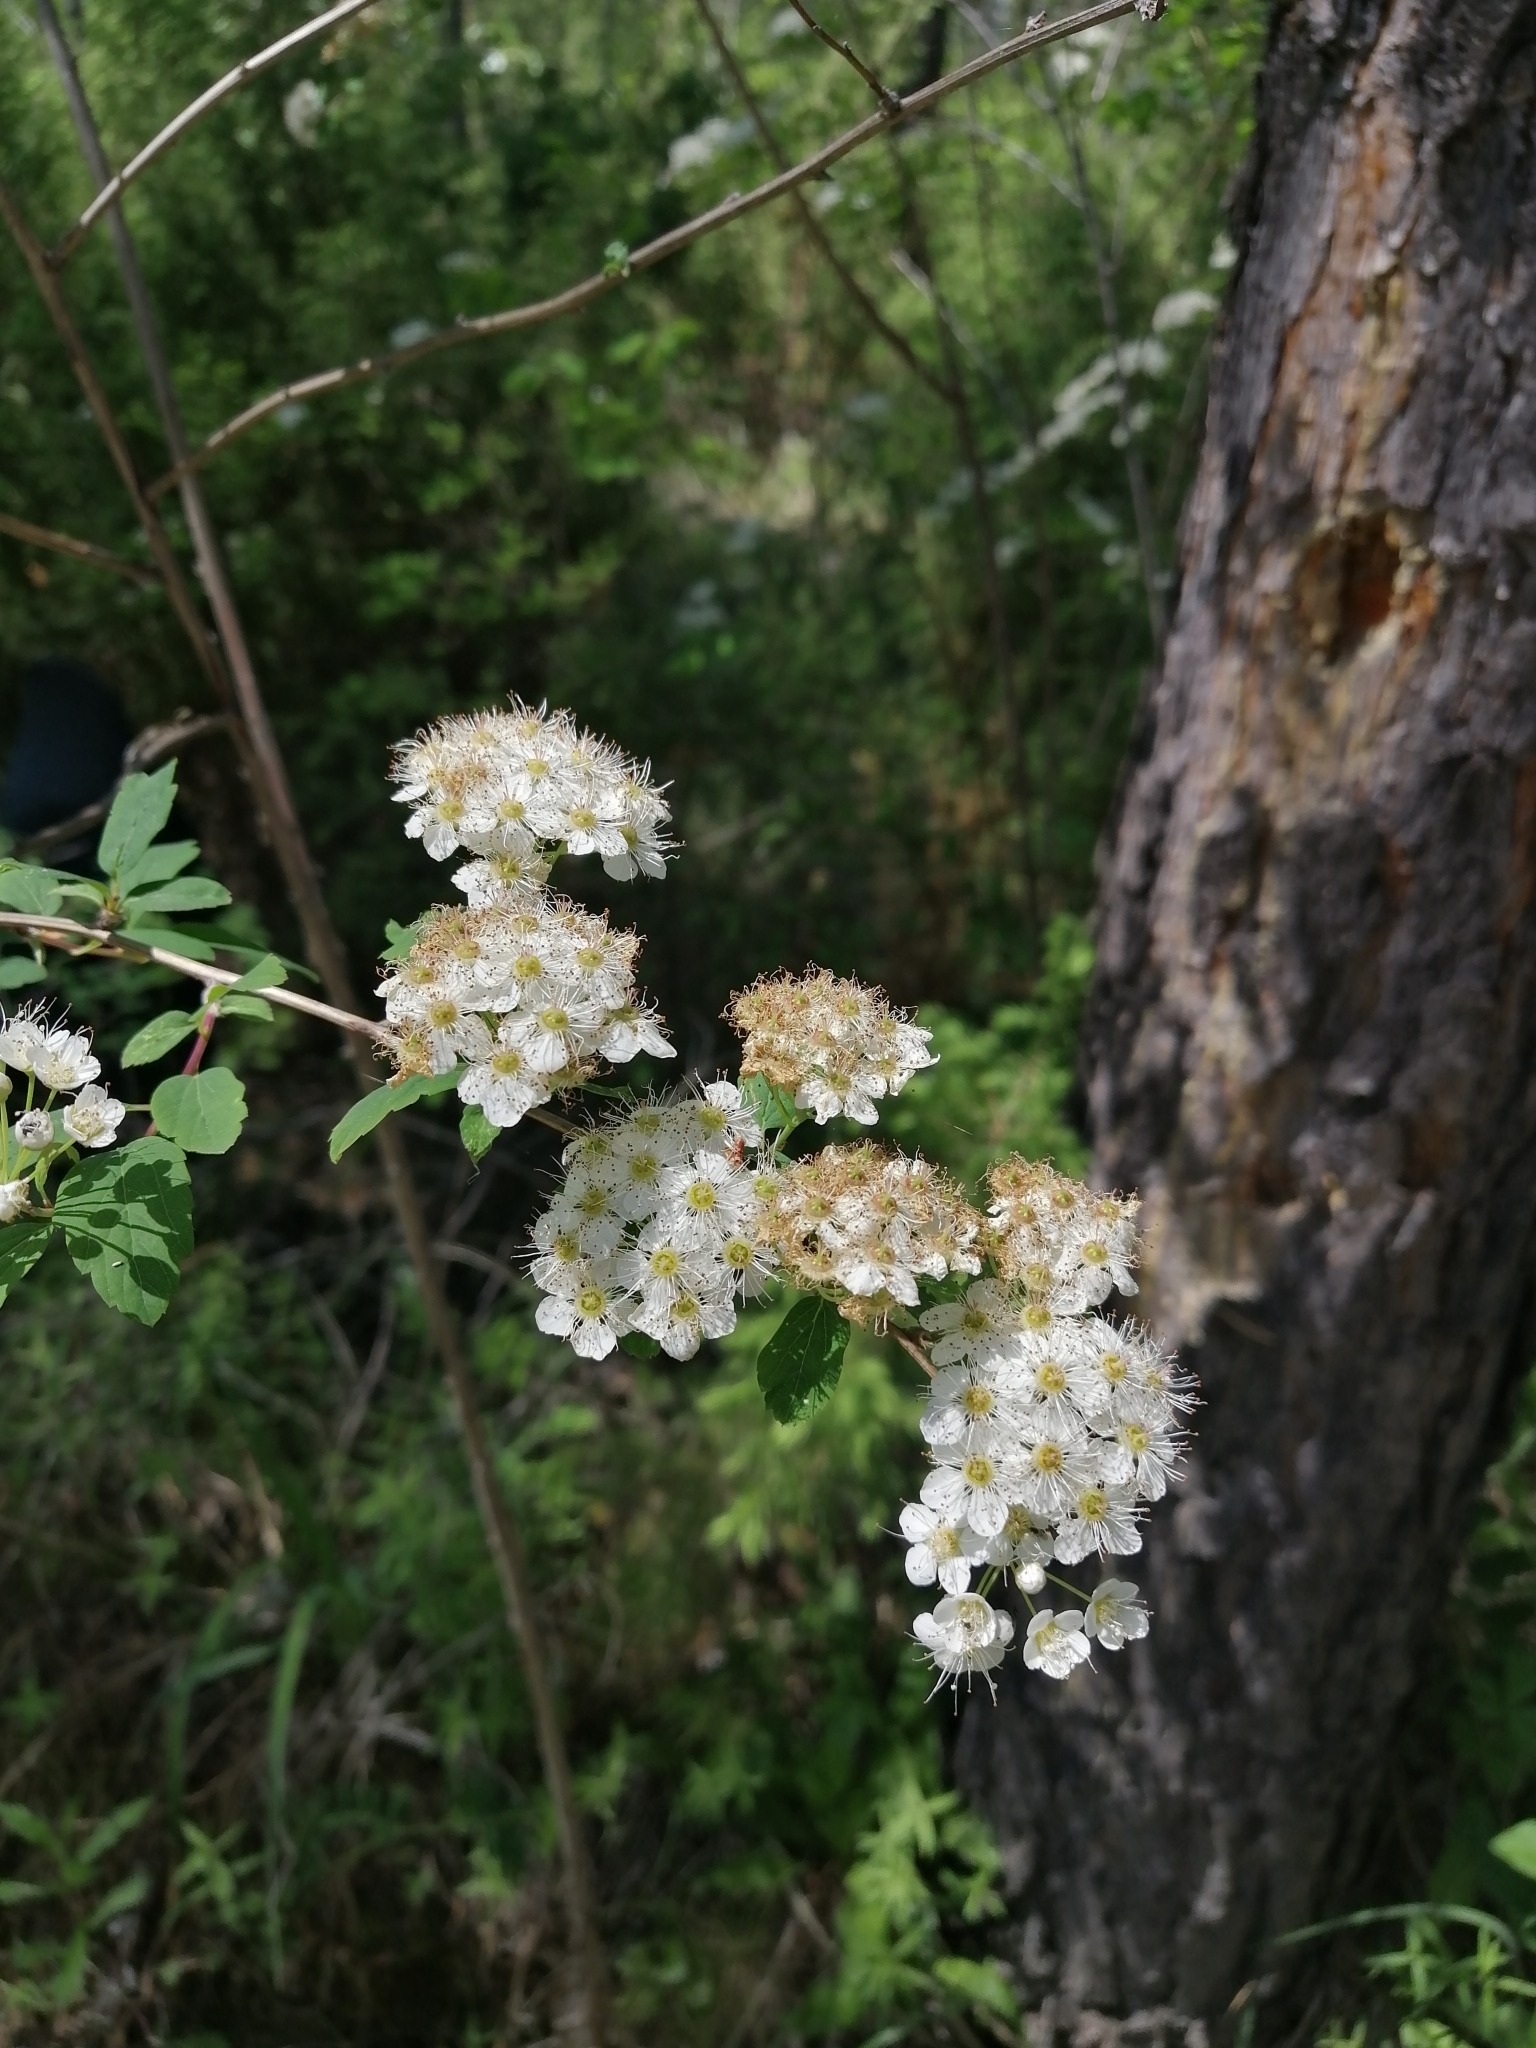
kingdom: Plantae
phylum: Tracheophyta
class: Magnoliopsida
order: Rosales
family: Rosaceae
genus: Spiraea
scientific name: Spiraea flexuosa
